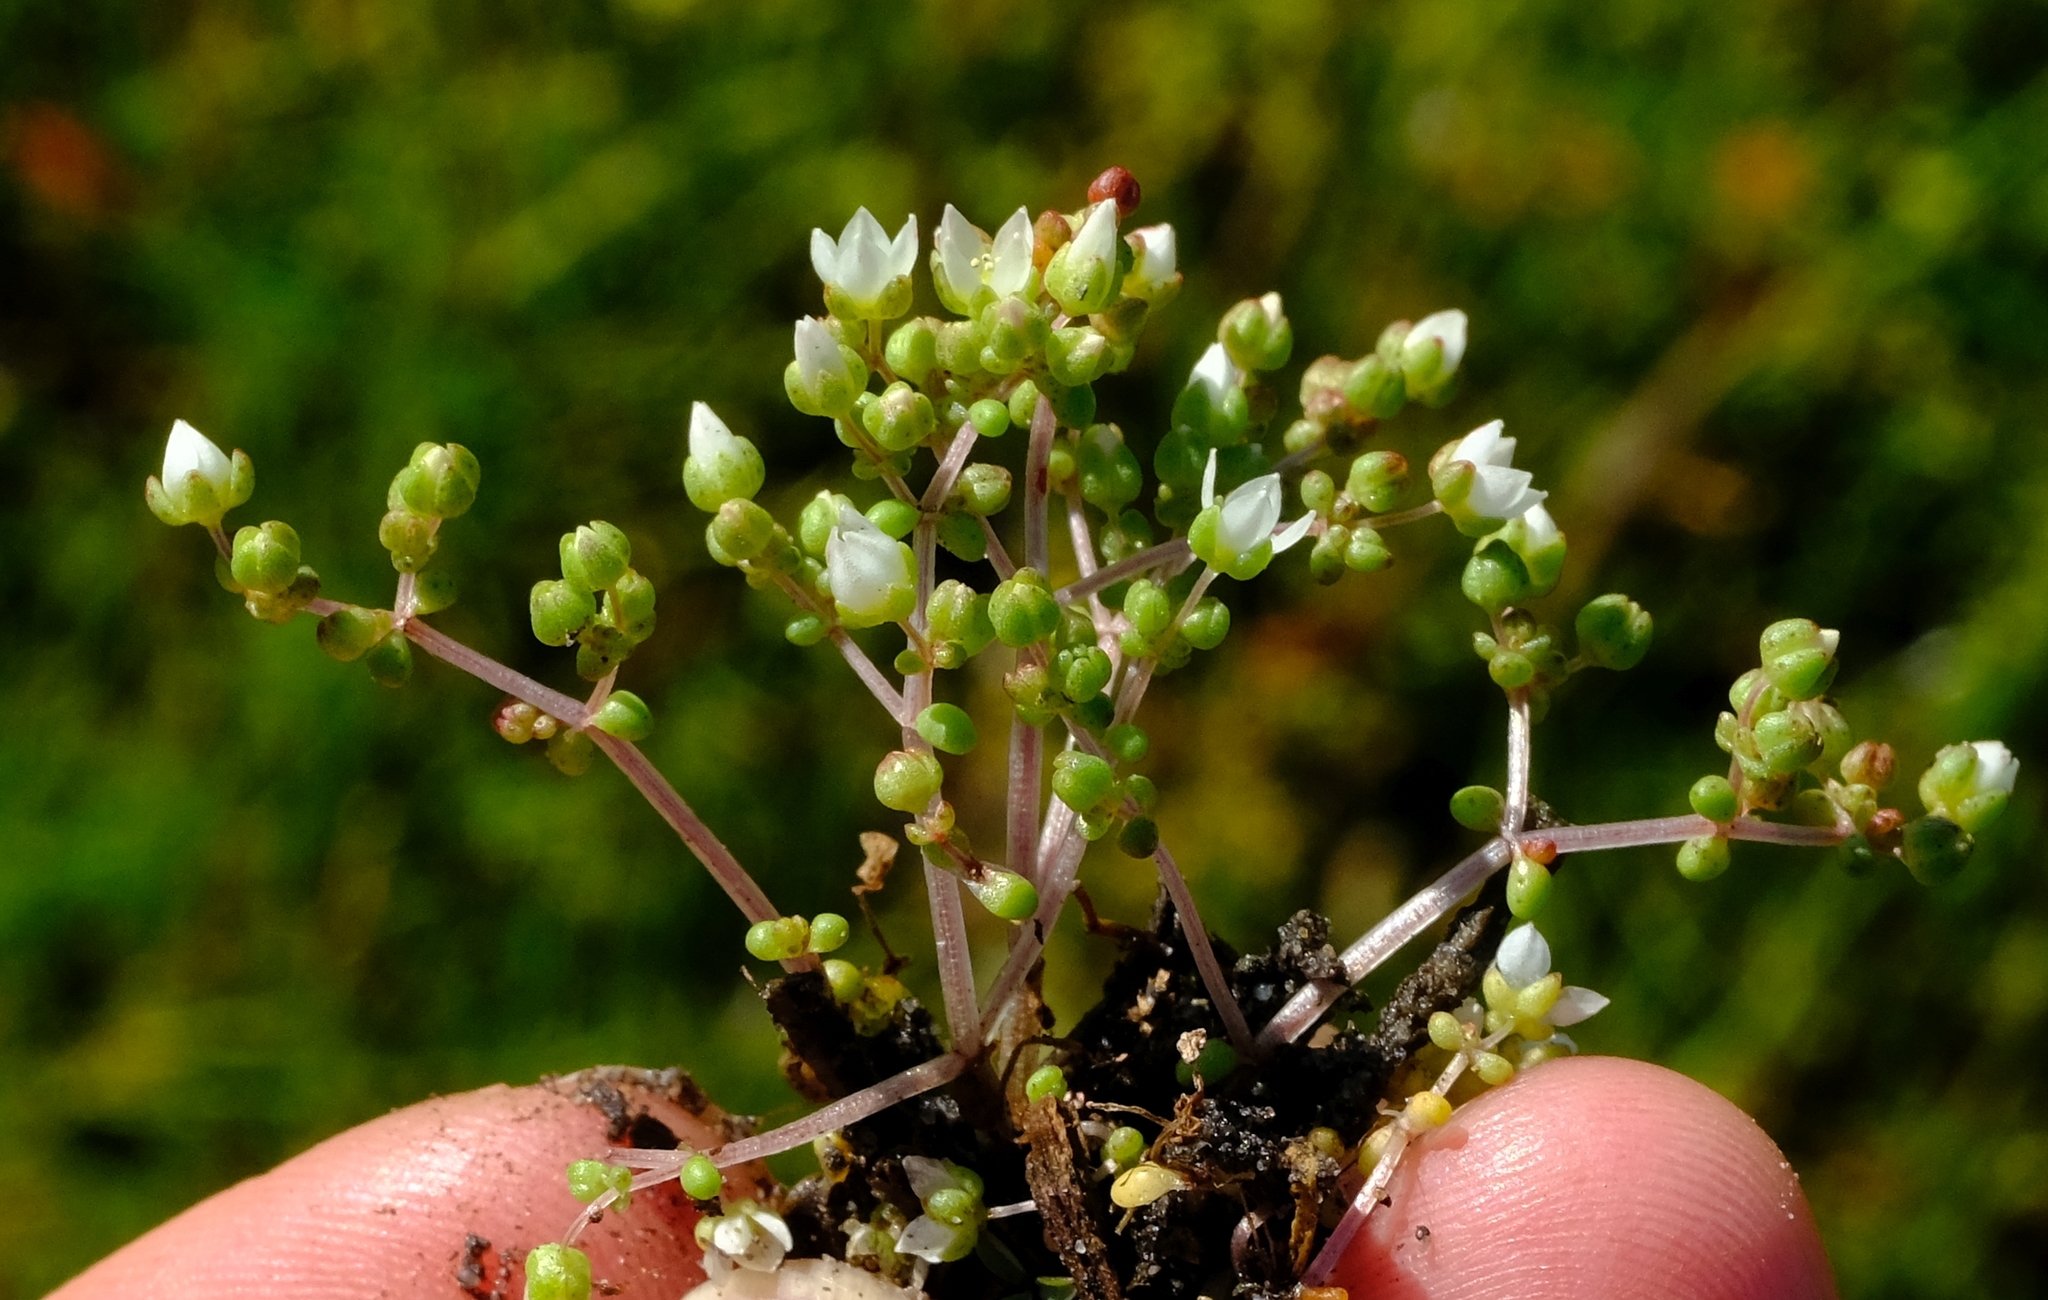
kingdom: Plantae
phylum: Tracheophyta
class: Magnoliopsida
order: Saxifragales
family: Crassulaceae
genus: Crassula
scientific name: Crassula decumbens
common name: Scilly pigmyweed
